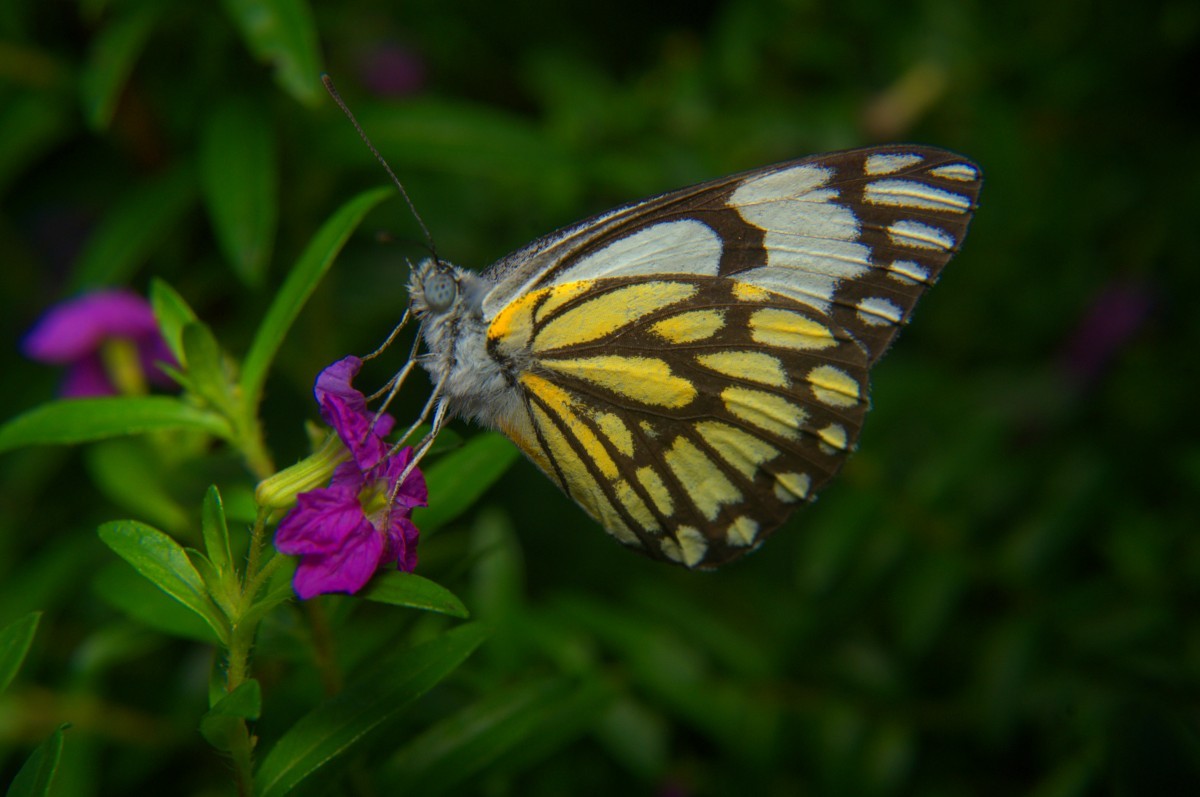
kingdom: Animalia
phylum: Arthropoda
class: Insecta
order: Lepidoptera
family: Pieridae
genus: Belenois
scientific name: Belenois aurota
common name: Brown-veined white
